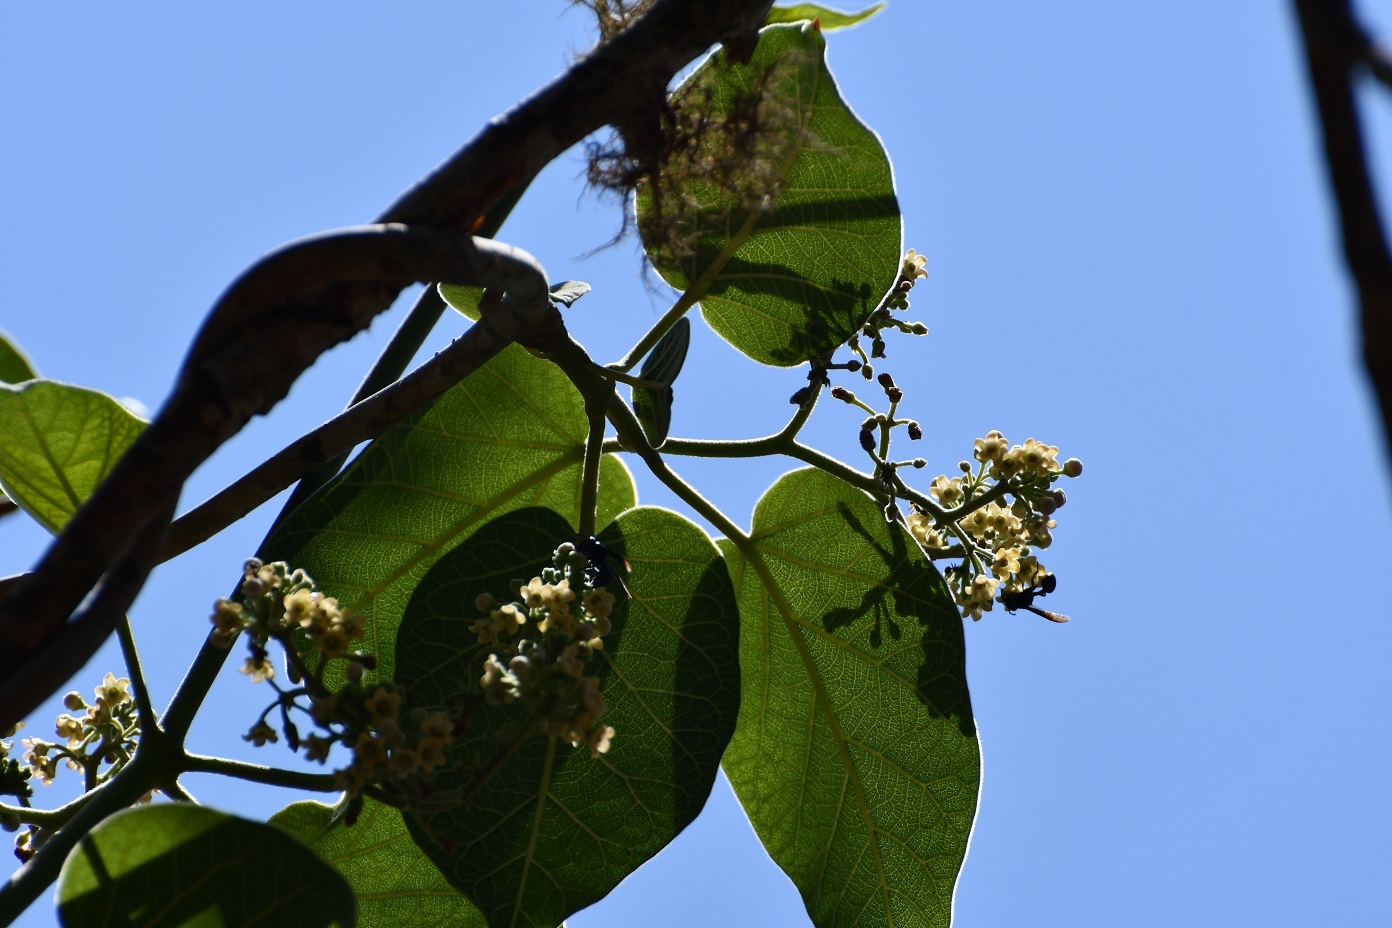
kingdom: Plantae
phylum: Tracheophyta
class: Magnoliopsida
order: Gentianales
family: Apocynaceae
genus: Ruehssia
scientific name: Ruehssia mexicana
